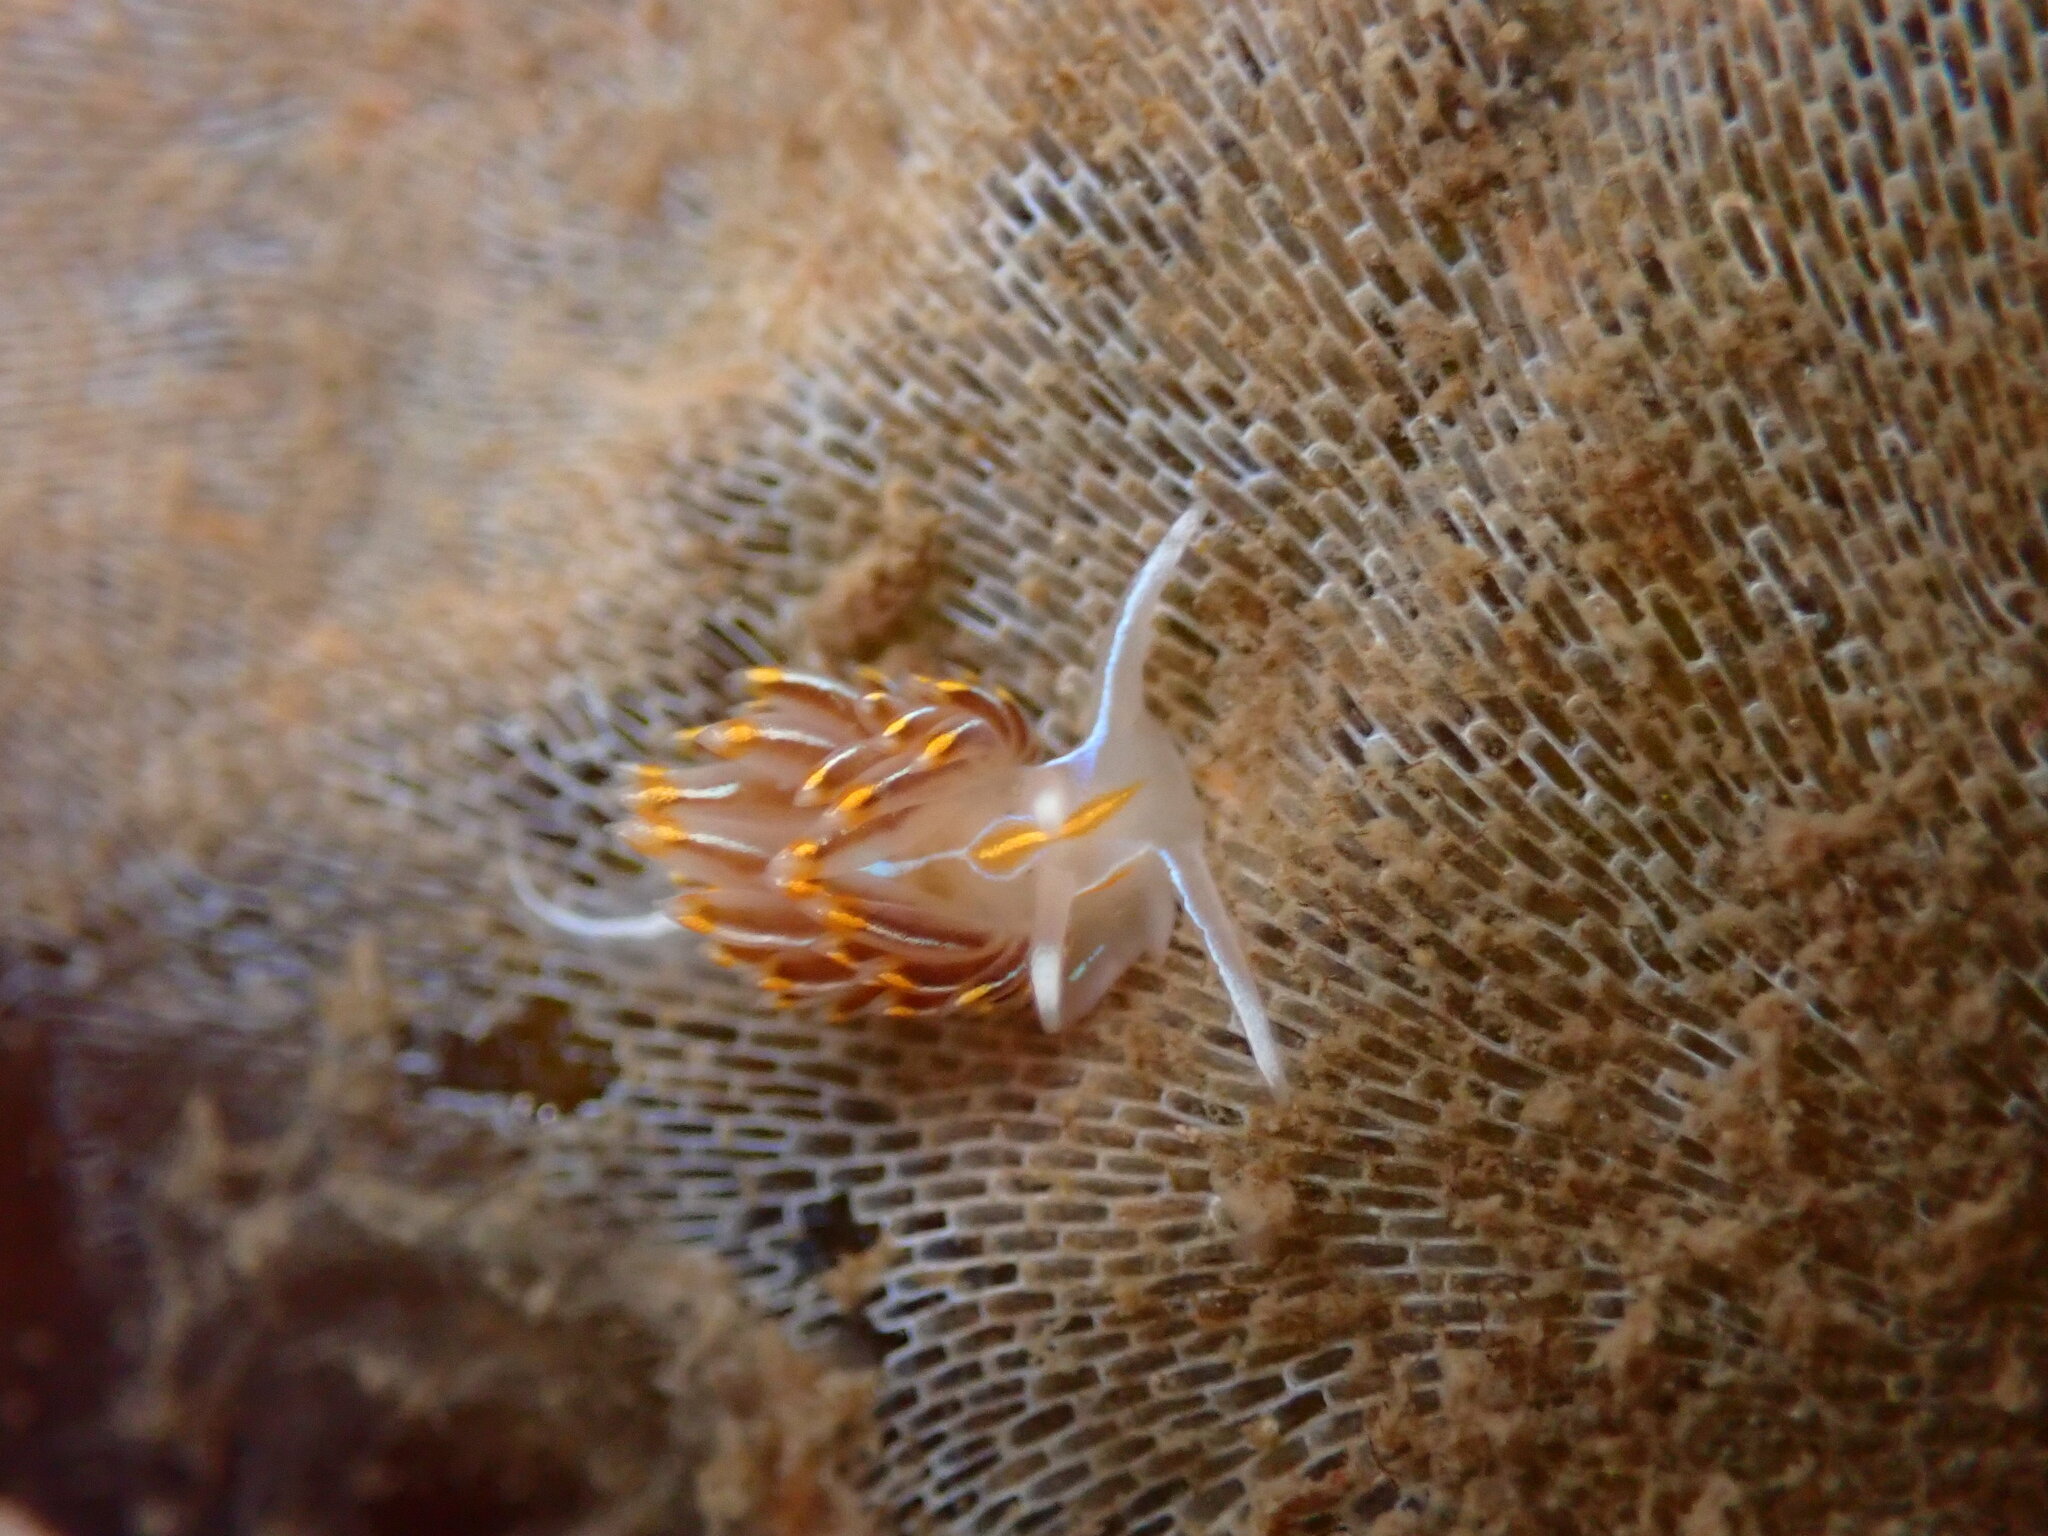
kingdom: Animalia
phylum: Mollusca
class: Gastropoda
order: Nudibranchia
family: Myrrhinidae
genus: Hermissenda
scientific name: Hermissenda crassicornis
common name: Hermissenda
